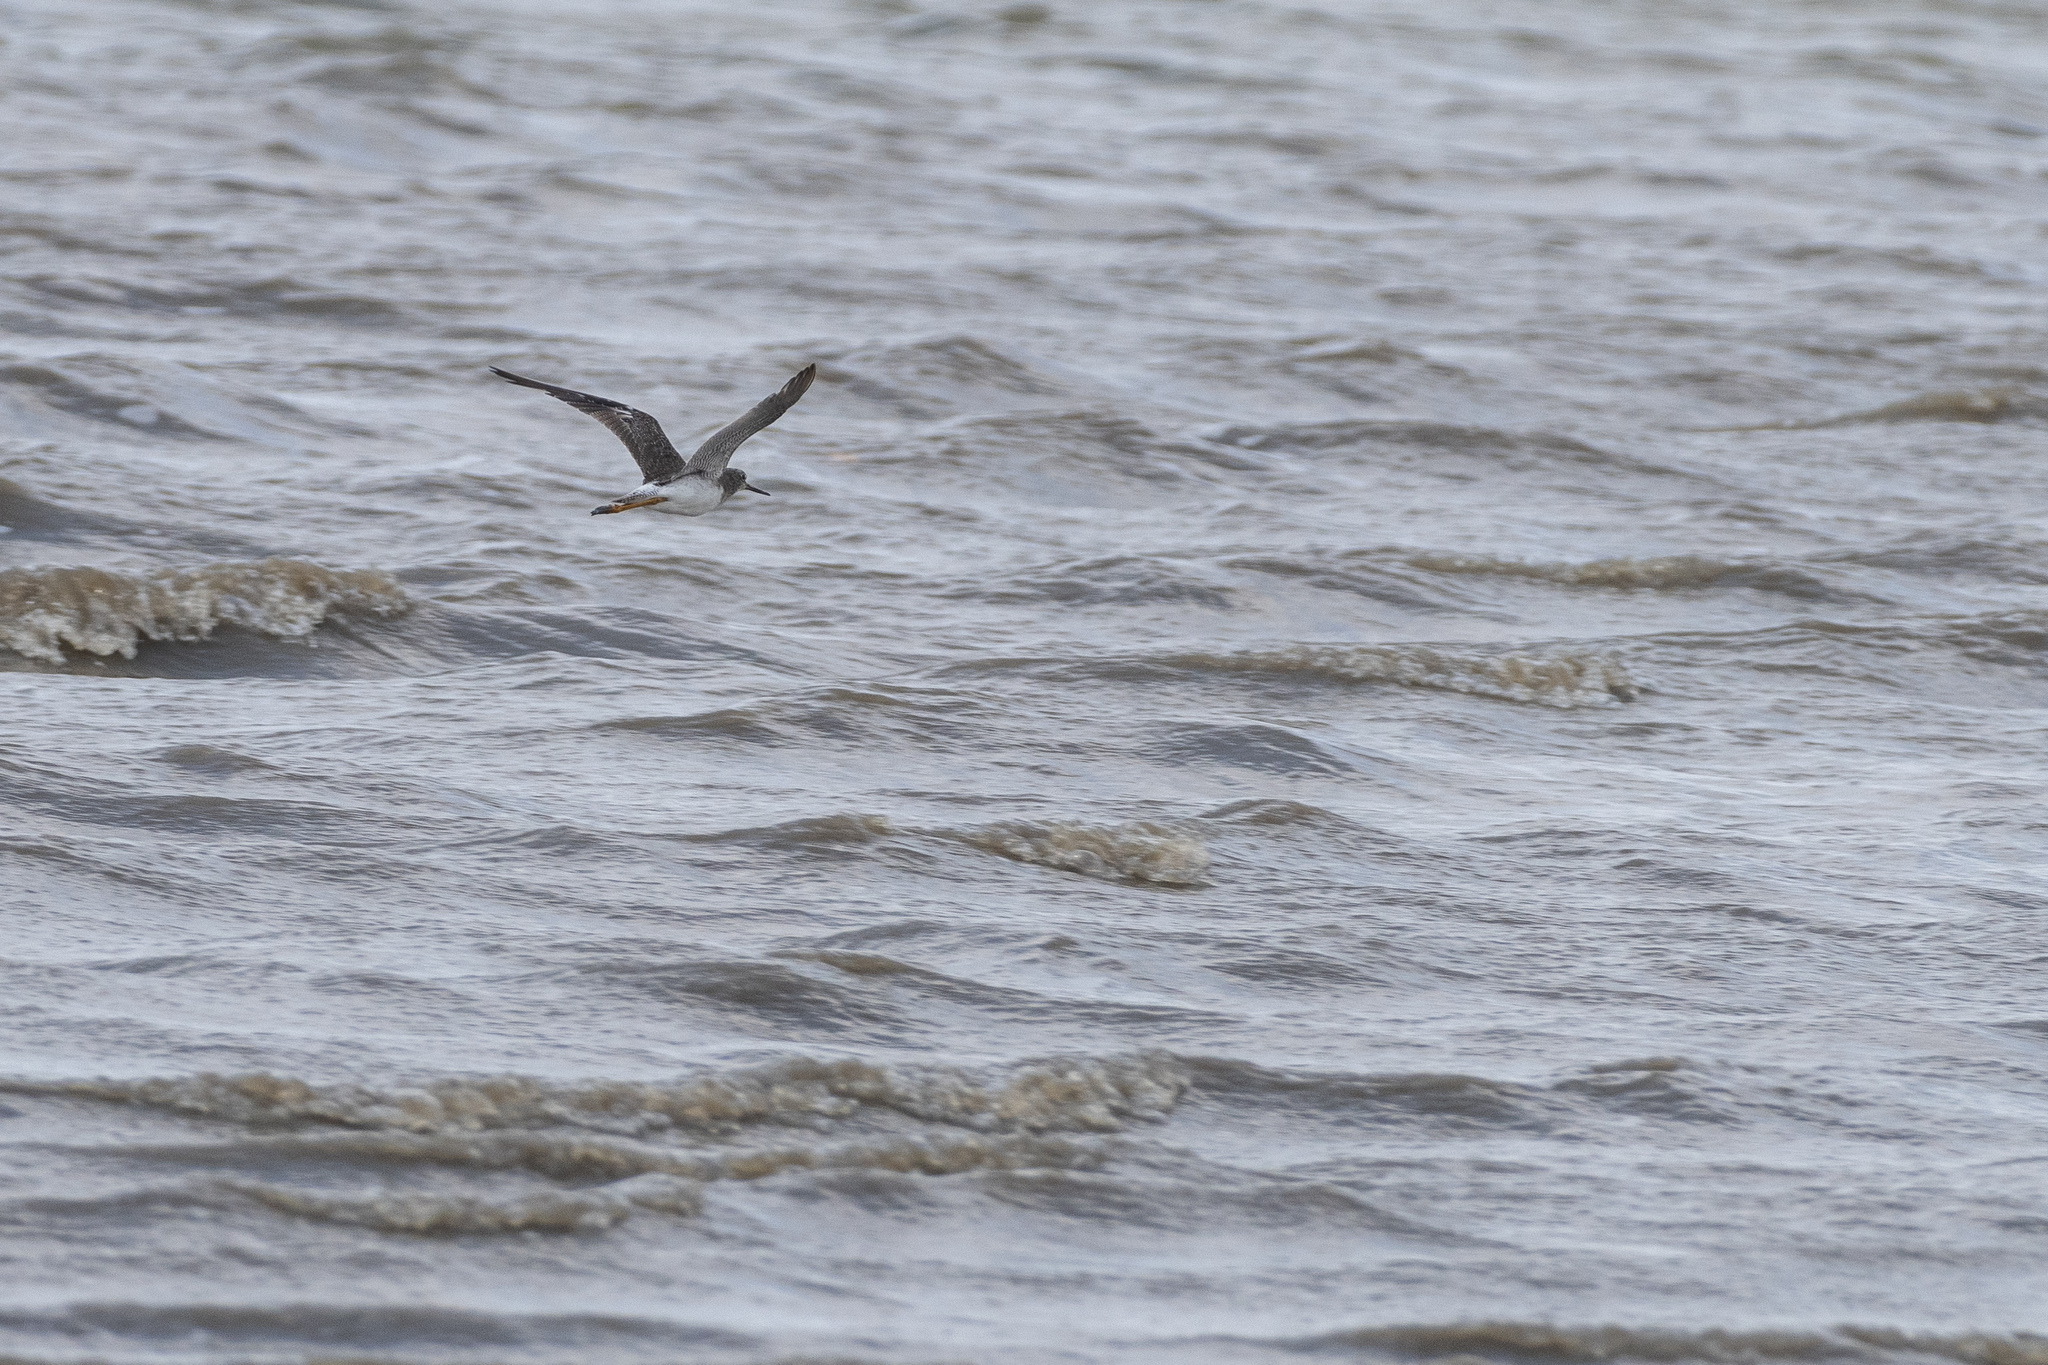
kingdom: Animalia
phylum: Chordata
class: Aves
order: Charadriiformes
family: Scolopacidae
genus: Tringa
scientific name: Tringa melanoleuca
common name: Greater yellowlegs
